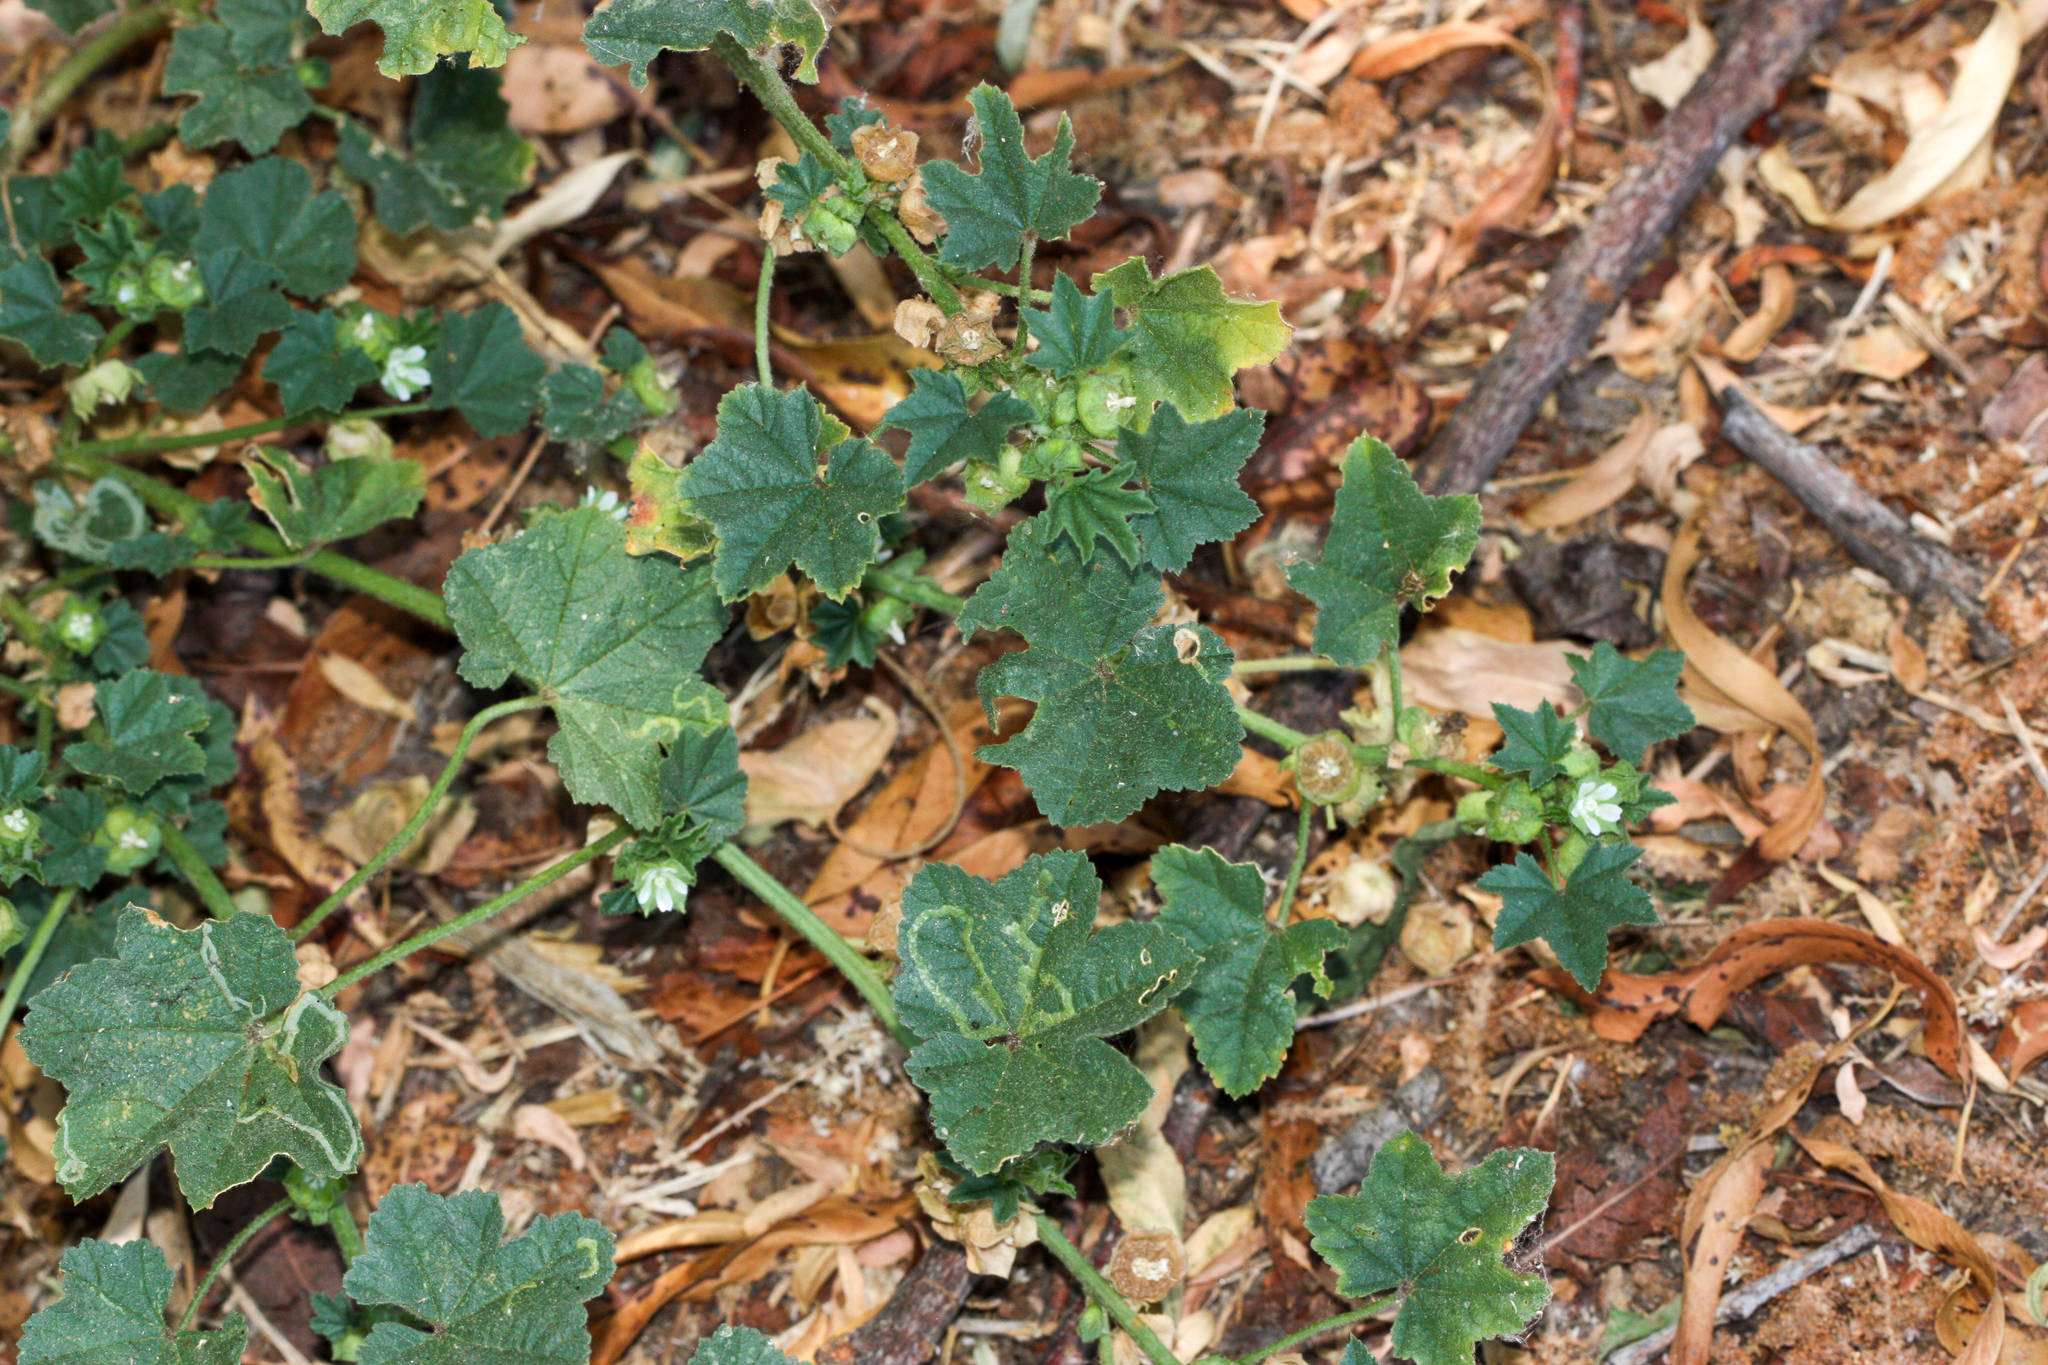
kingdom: Plantae
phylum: Tracheophyta
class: Magnoliopsida
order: Malvales
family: Malvaceae
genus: Malva
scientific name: Malva parviflora
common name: Least mallow
